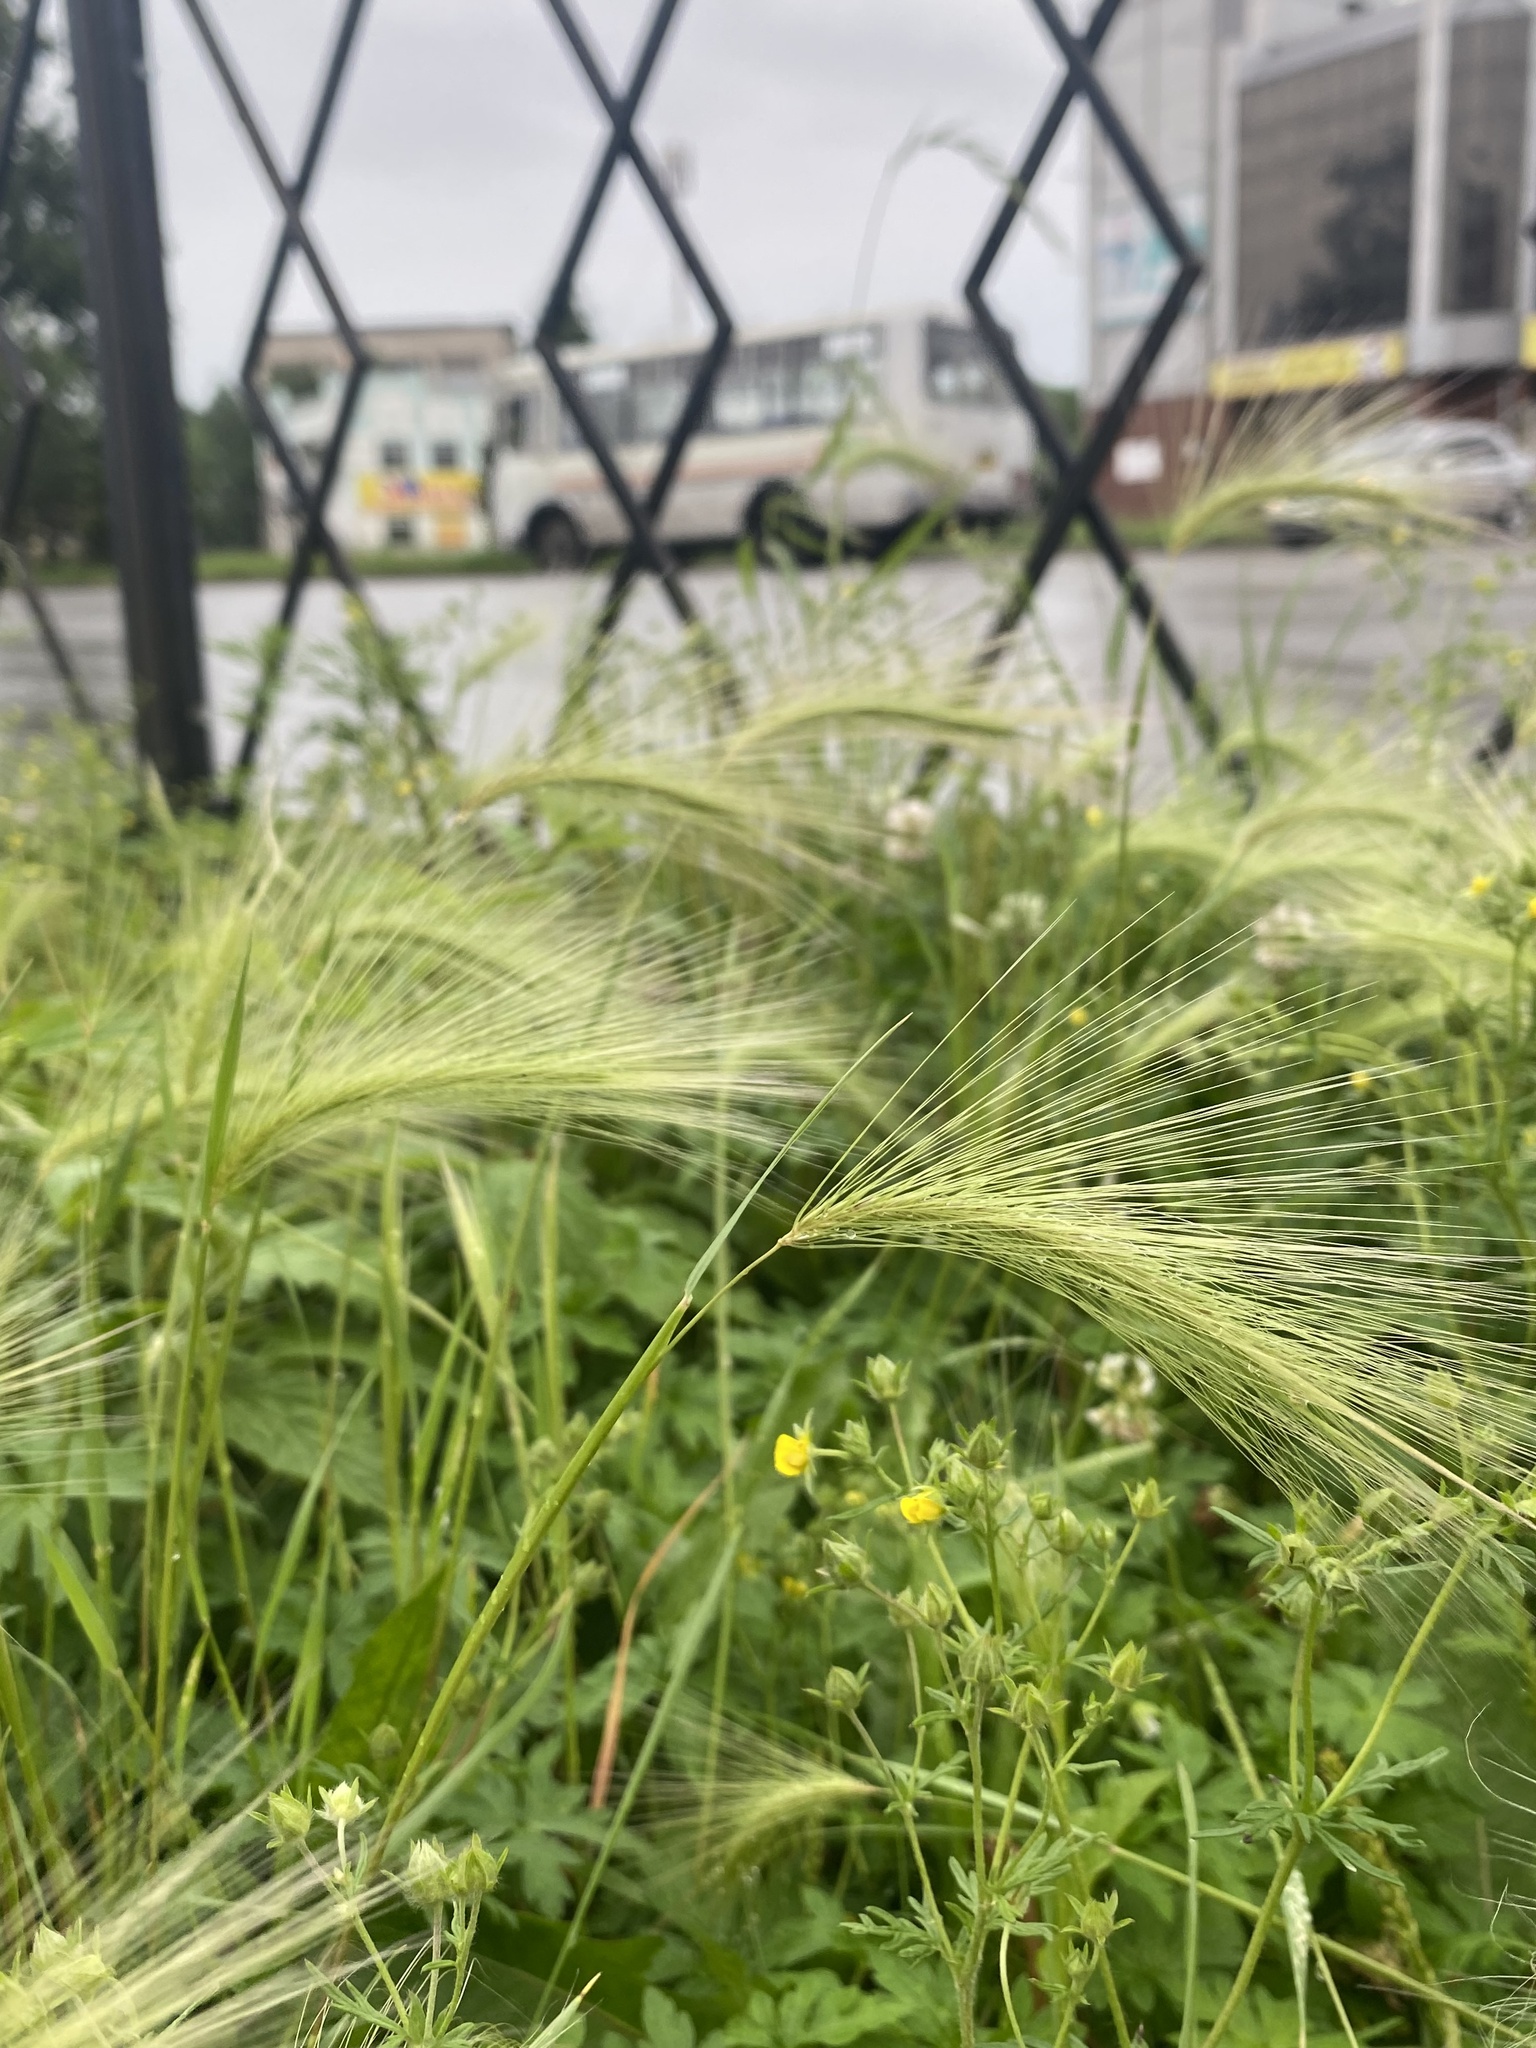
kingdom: Plantae
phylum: Tracheophyta
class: Liliopsida
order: Poales
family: Poaceae
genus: Hordeum
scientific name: Hordeum jubatum
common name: Foxtail barley
